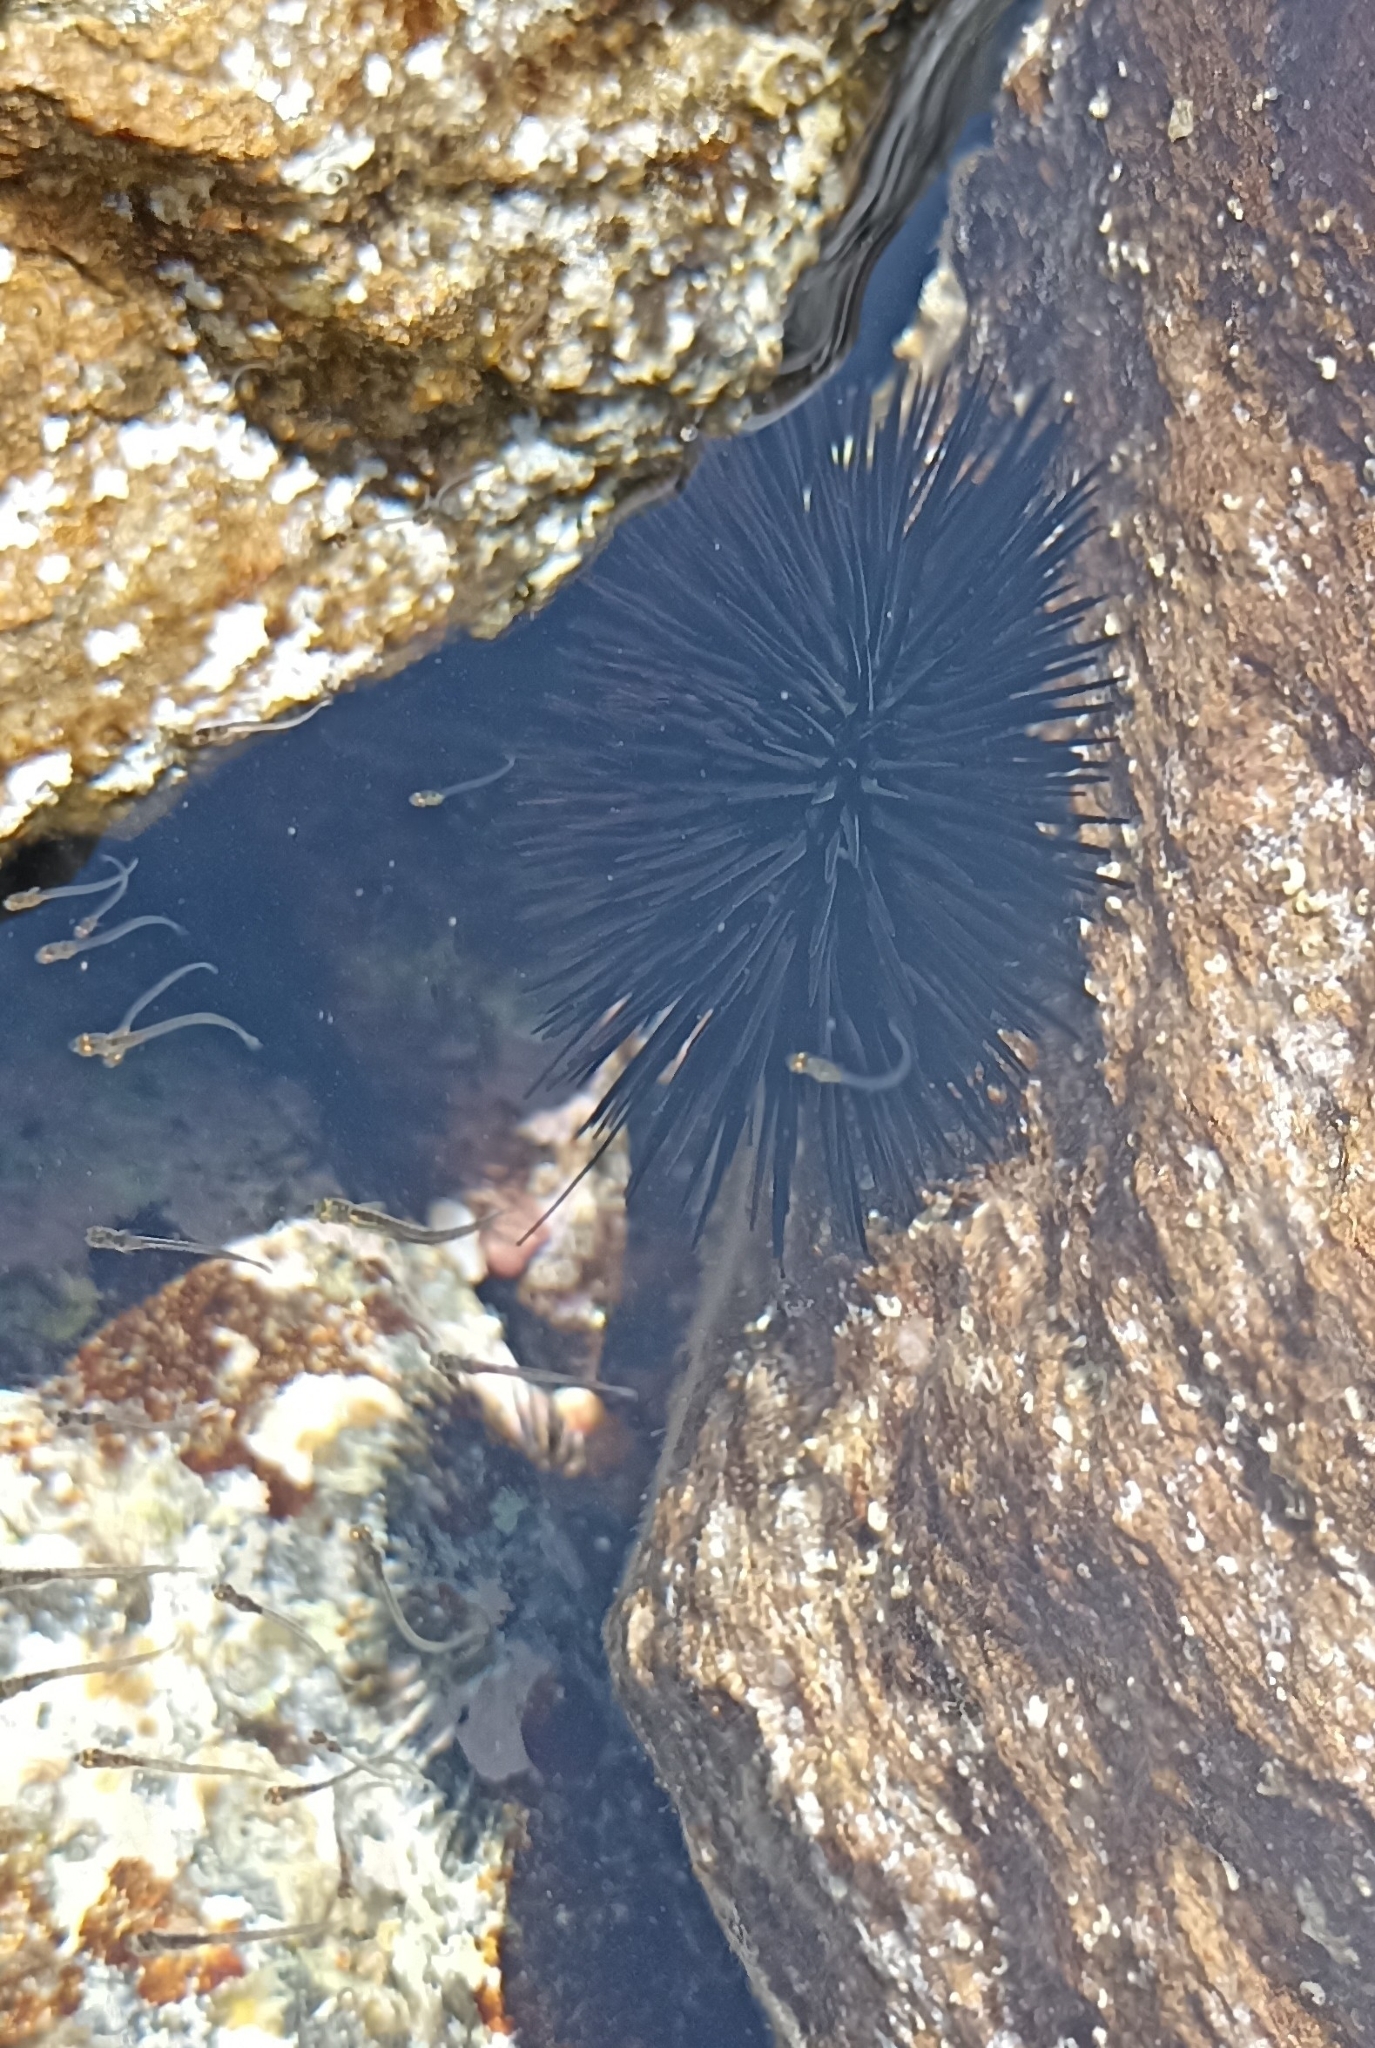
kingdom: Animalia
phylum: Echinodermata
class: Echinoidea
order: Arbacioida
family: Arbaciidae
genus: Arbacia
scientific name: Arbacia lixula
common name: Black sea urchin
